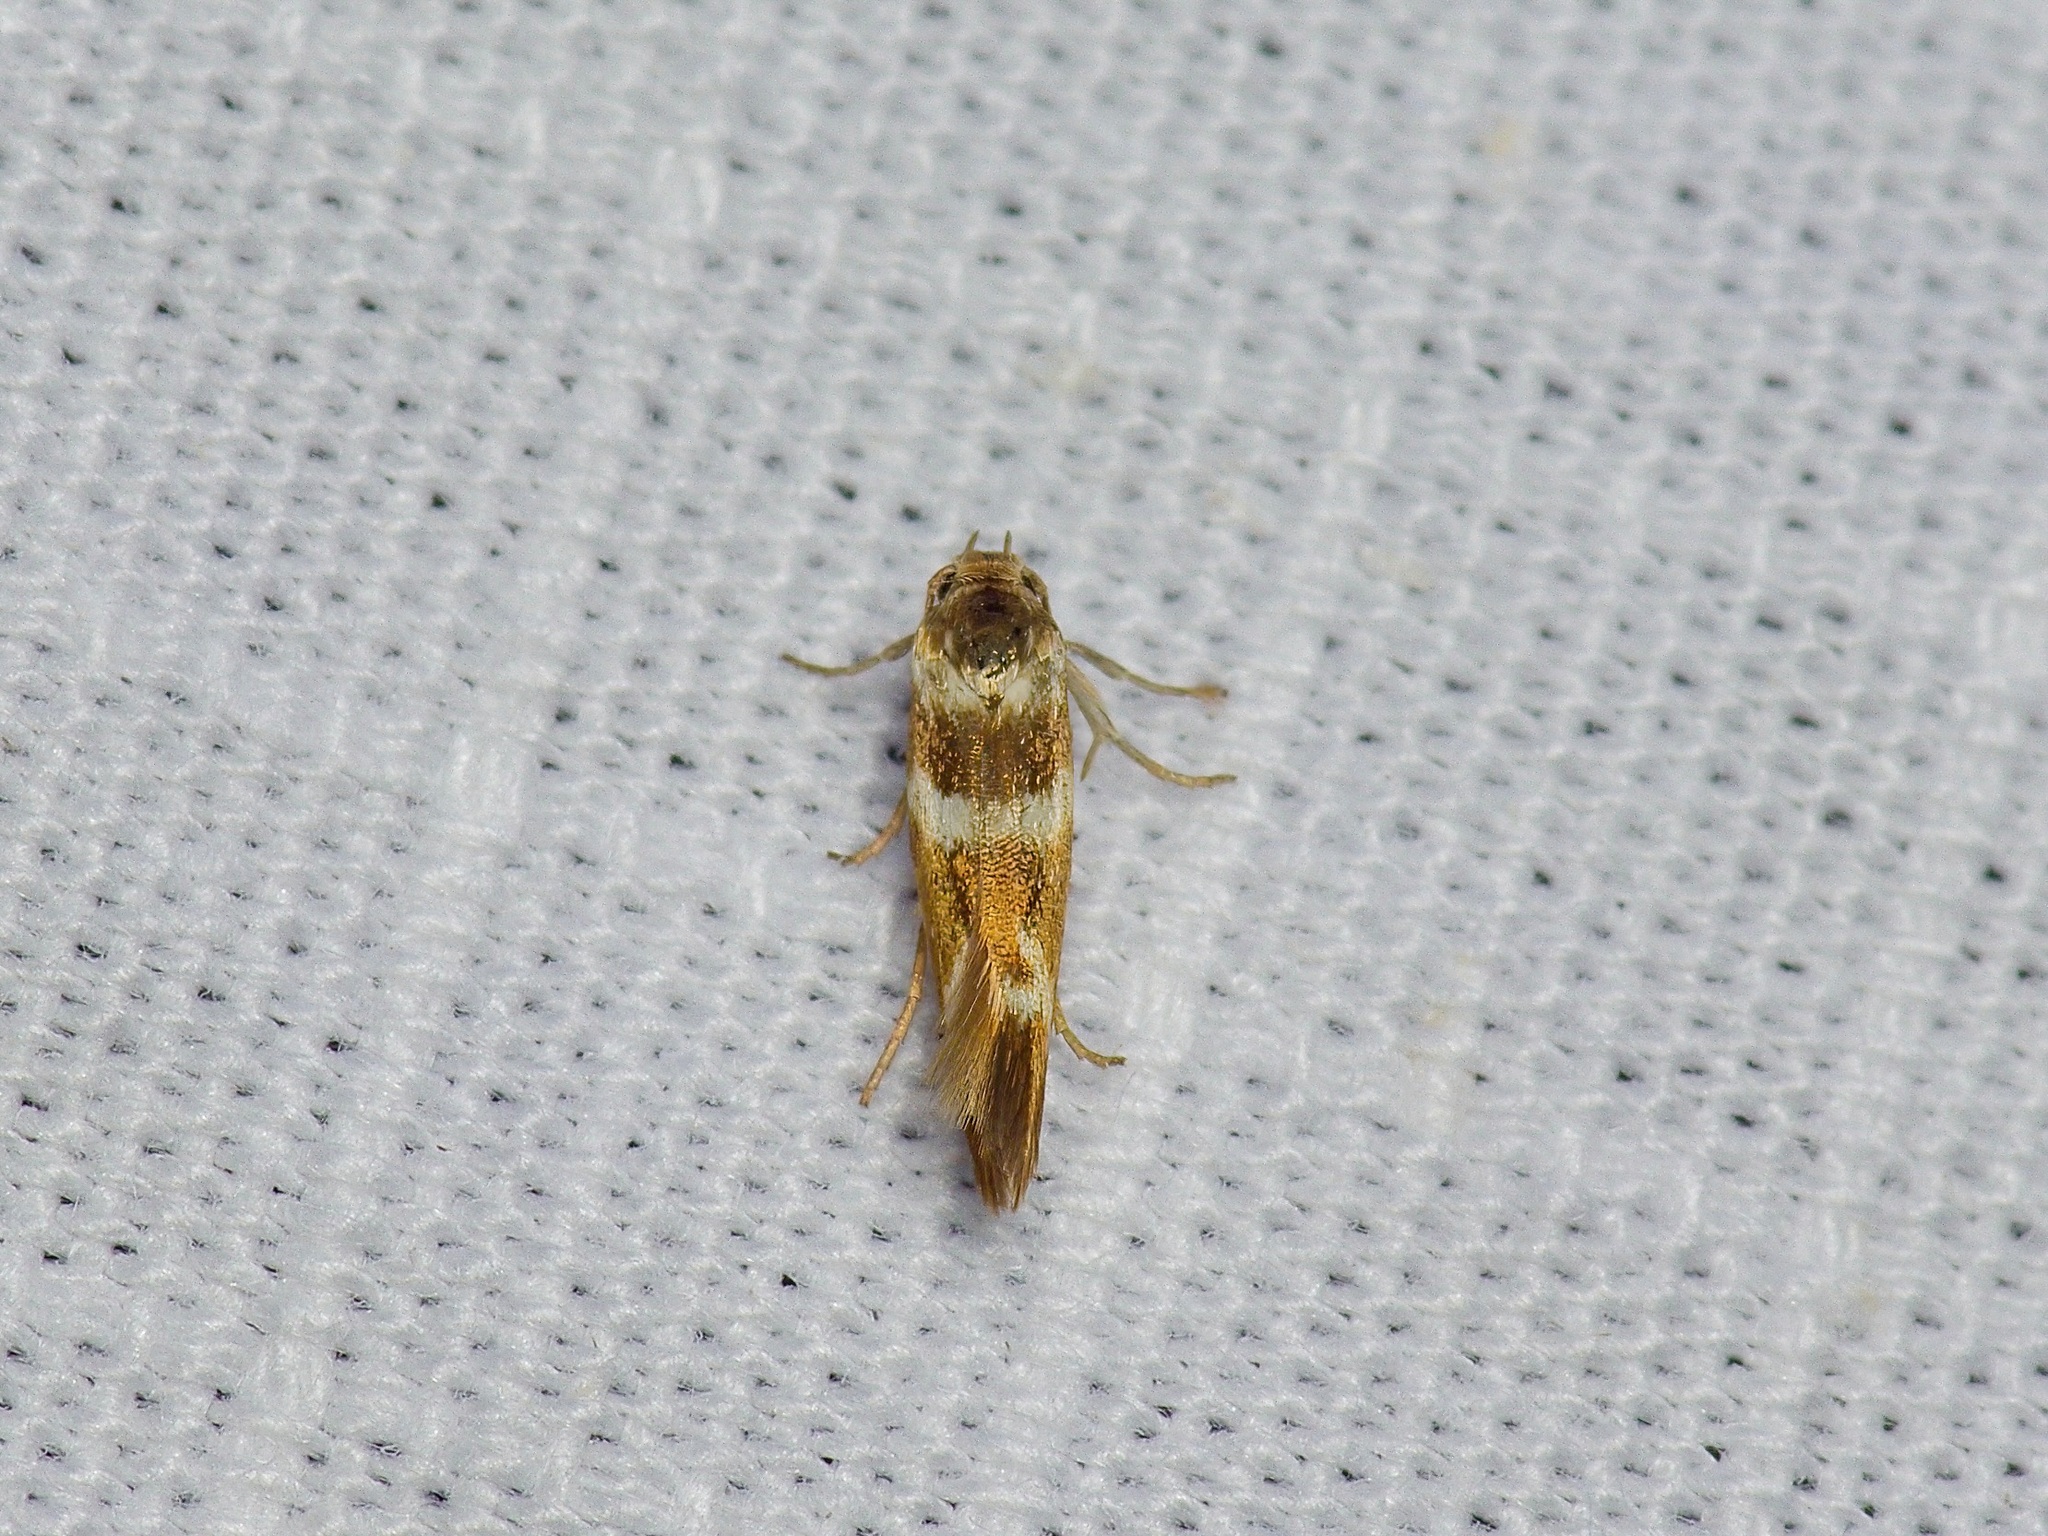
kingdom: Animalia
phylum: Arthropoda
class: Insecta
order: Lepidoptera
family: Scythrididae
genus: Scythris
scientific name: Scythris trivinctella
